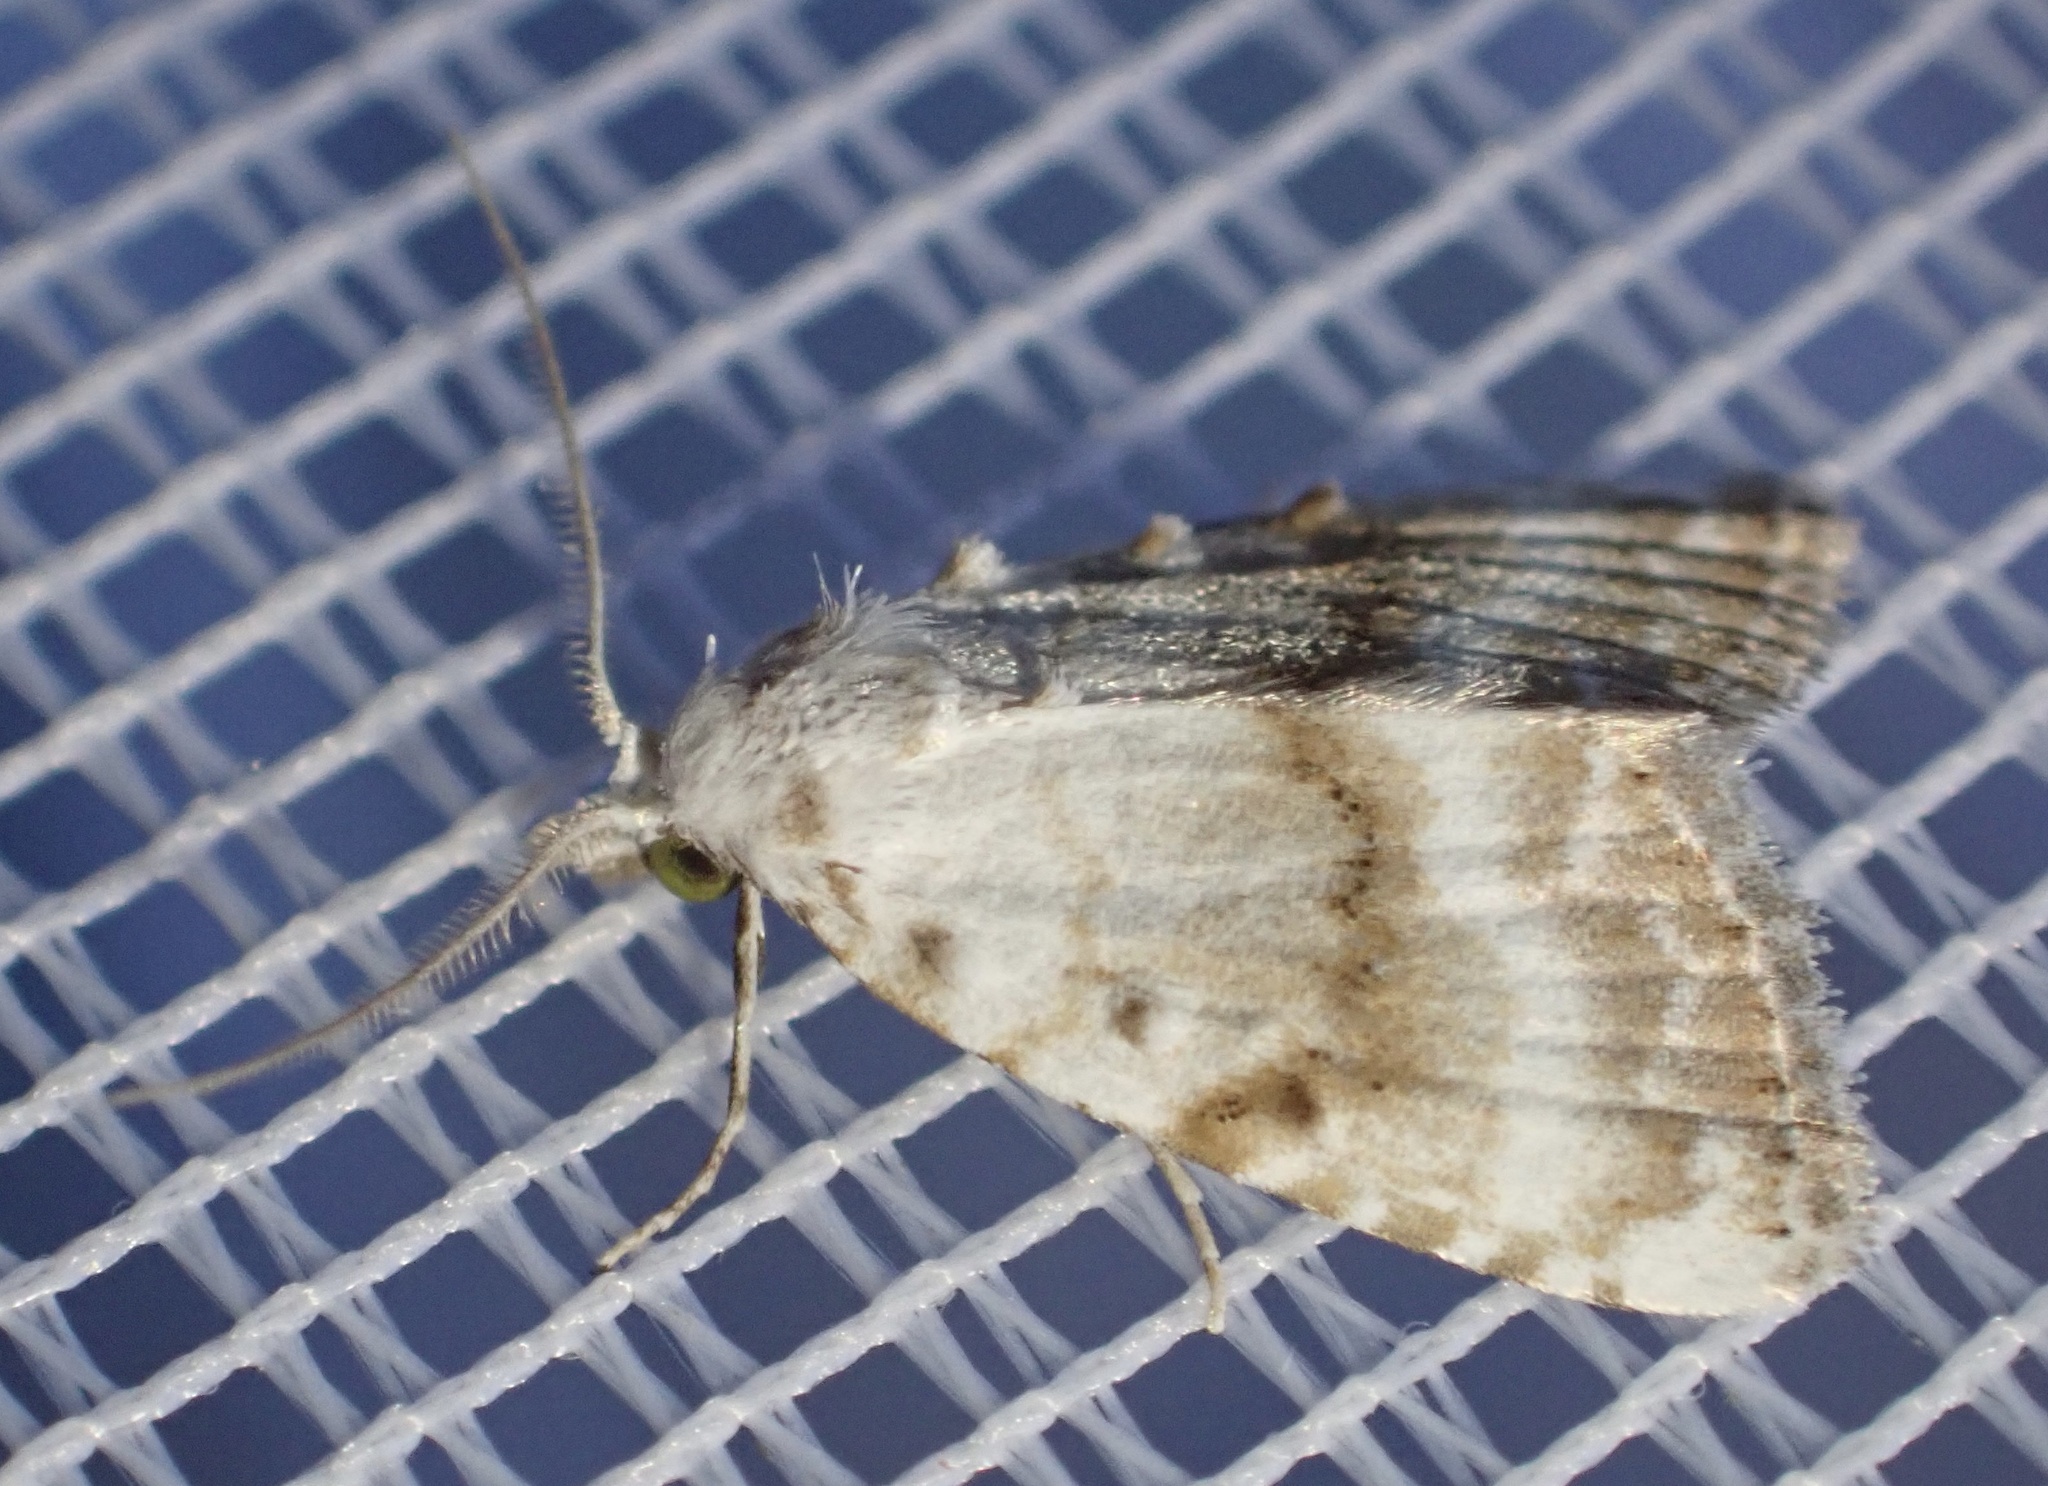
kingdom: Animalia
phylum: Arthropoda
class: Insecta
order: Lepidoptera
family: Nolidae
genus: Meganola
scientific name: Meganola albula
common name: Kent black arches
